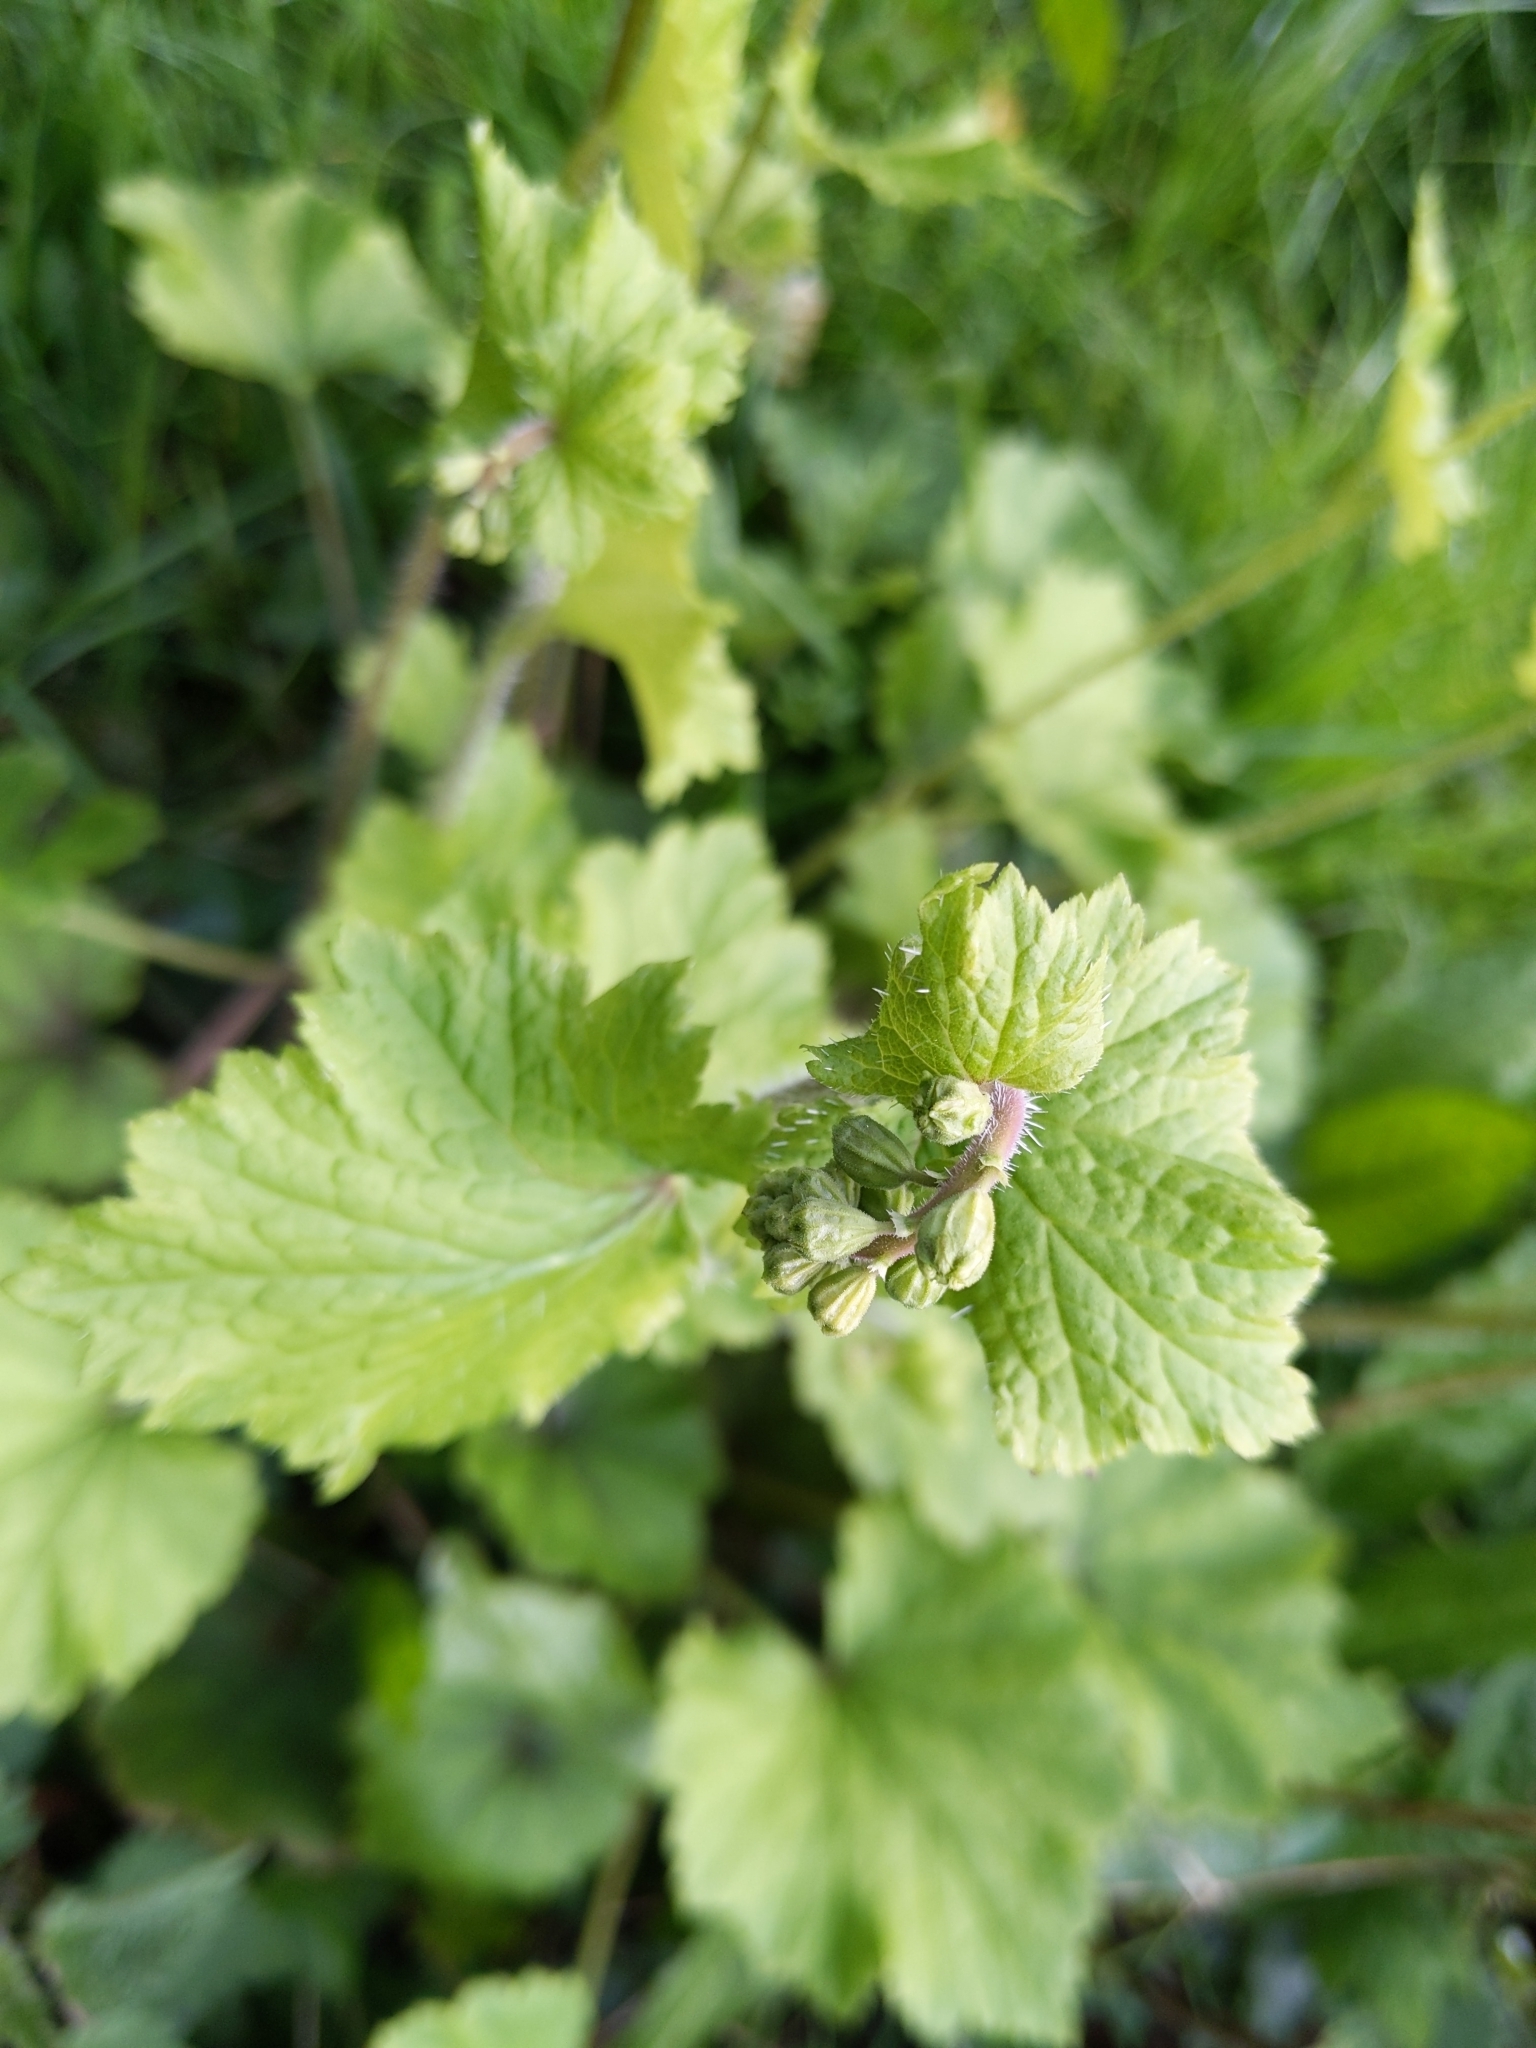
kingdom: Plantae
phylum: Tracheophyta
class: Magnoliopsida
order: Saxifragales
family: Saxifragaceae
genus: Tellima
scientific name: Tellima grandiflora
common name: Fringecups
